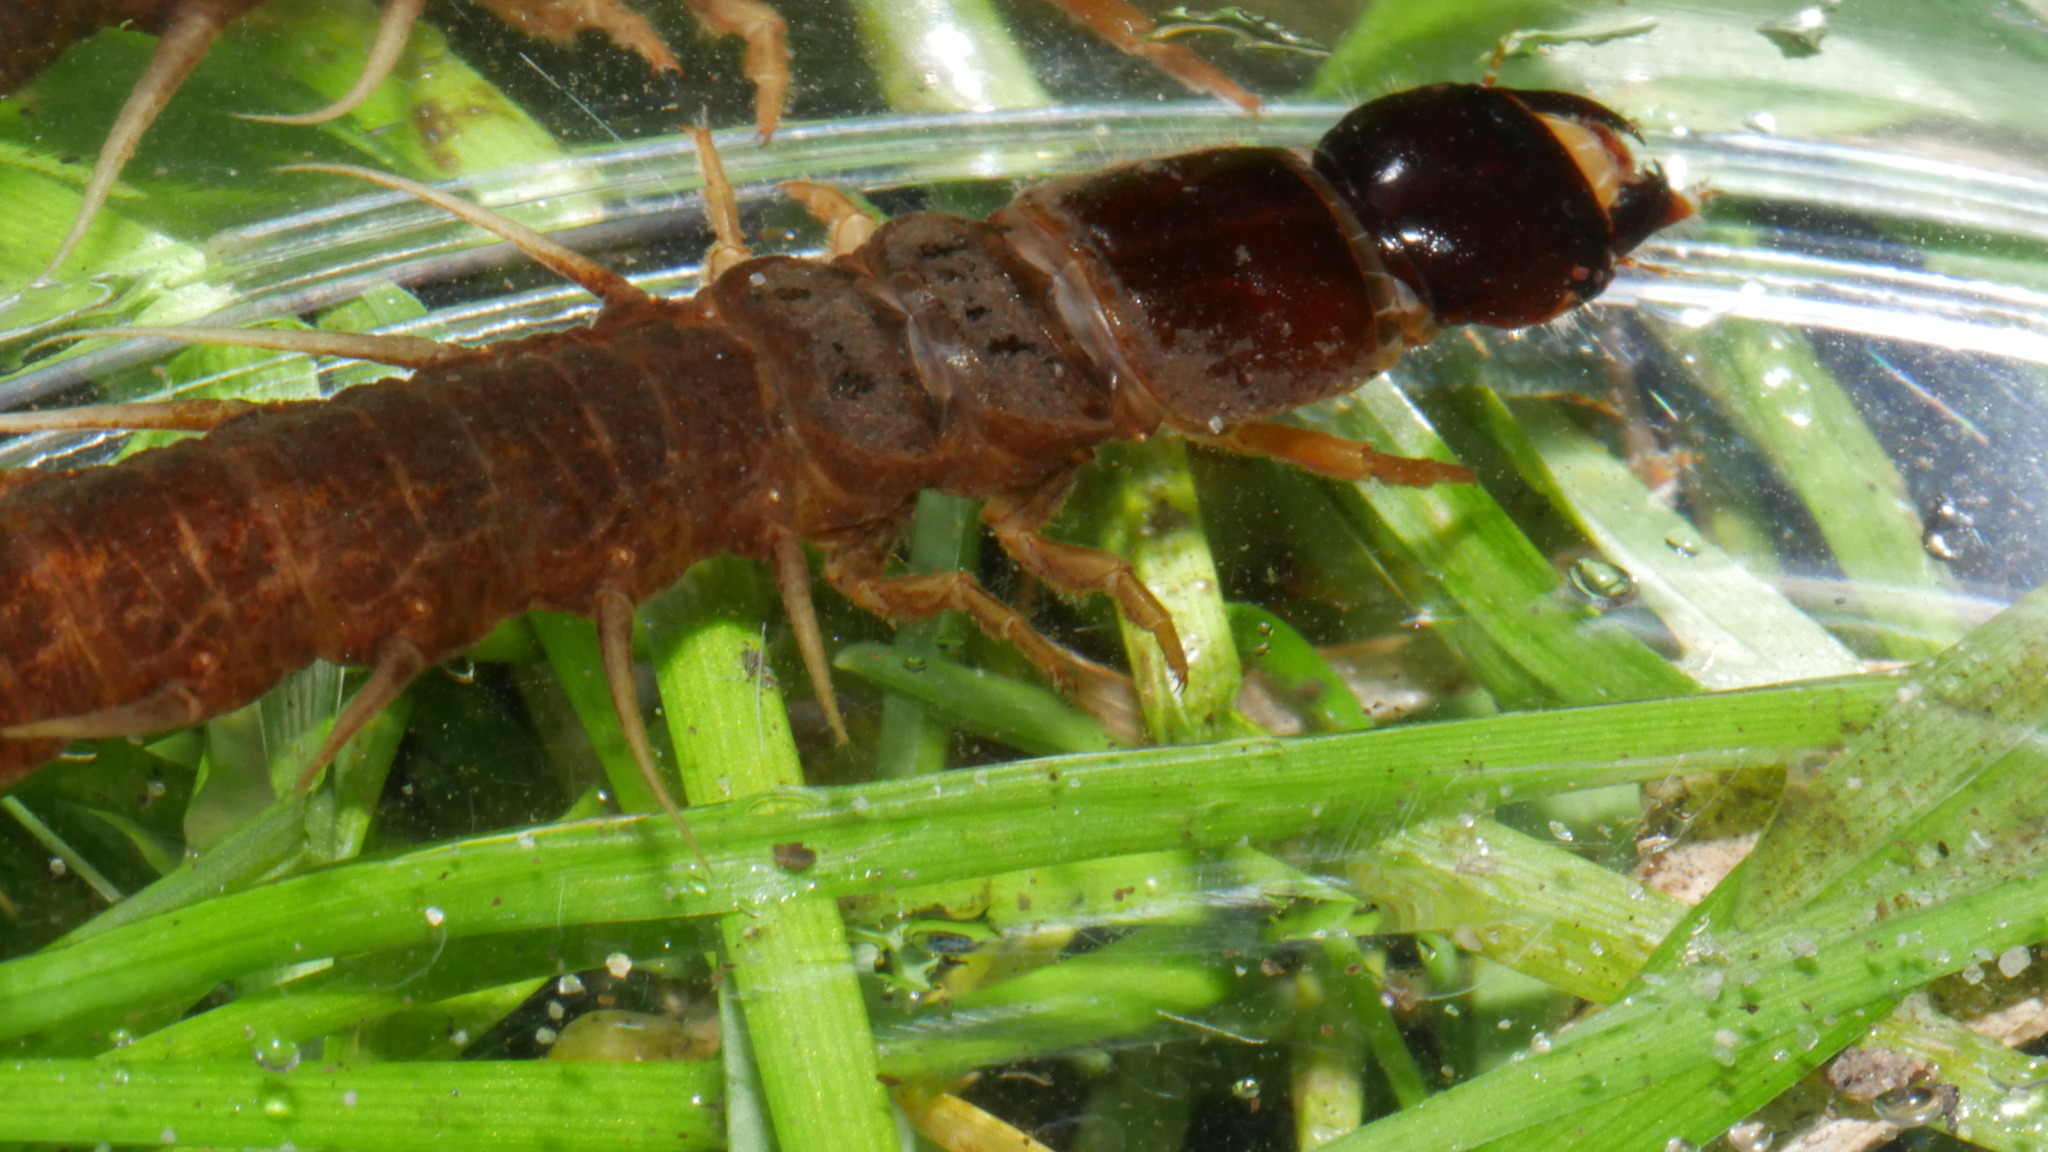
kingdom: Animalia
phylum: Arthropoda
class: Insecta
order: Megaloptera
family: Corydalidae
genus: Nigronia
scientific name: Nigronia
